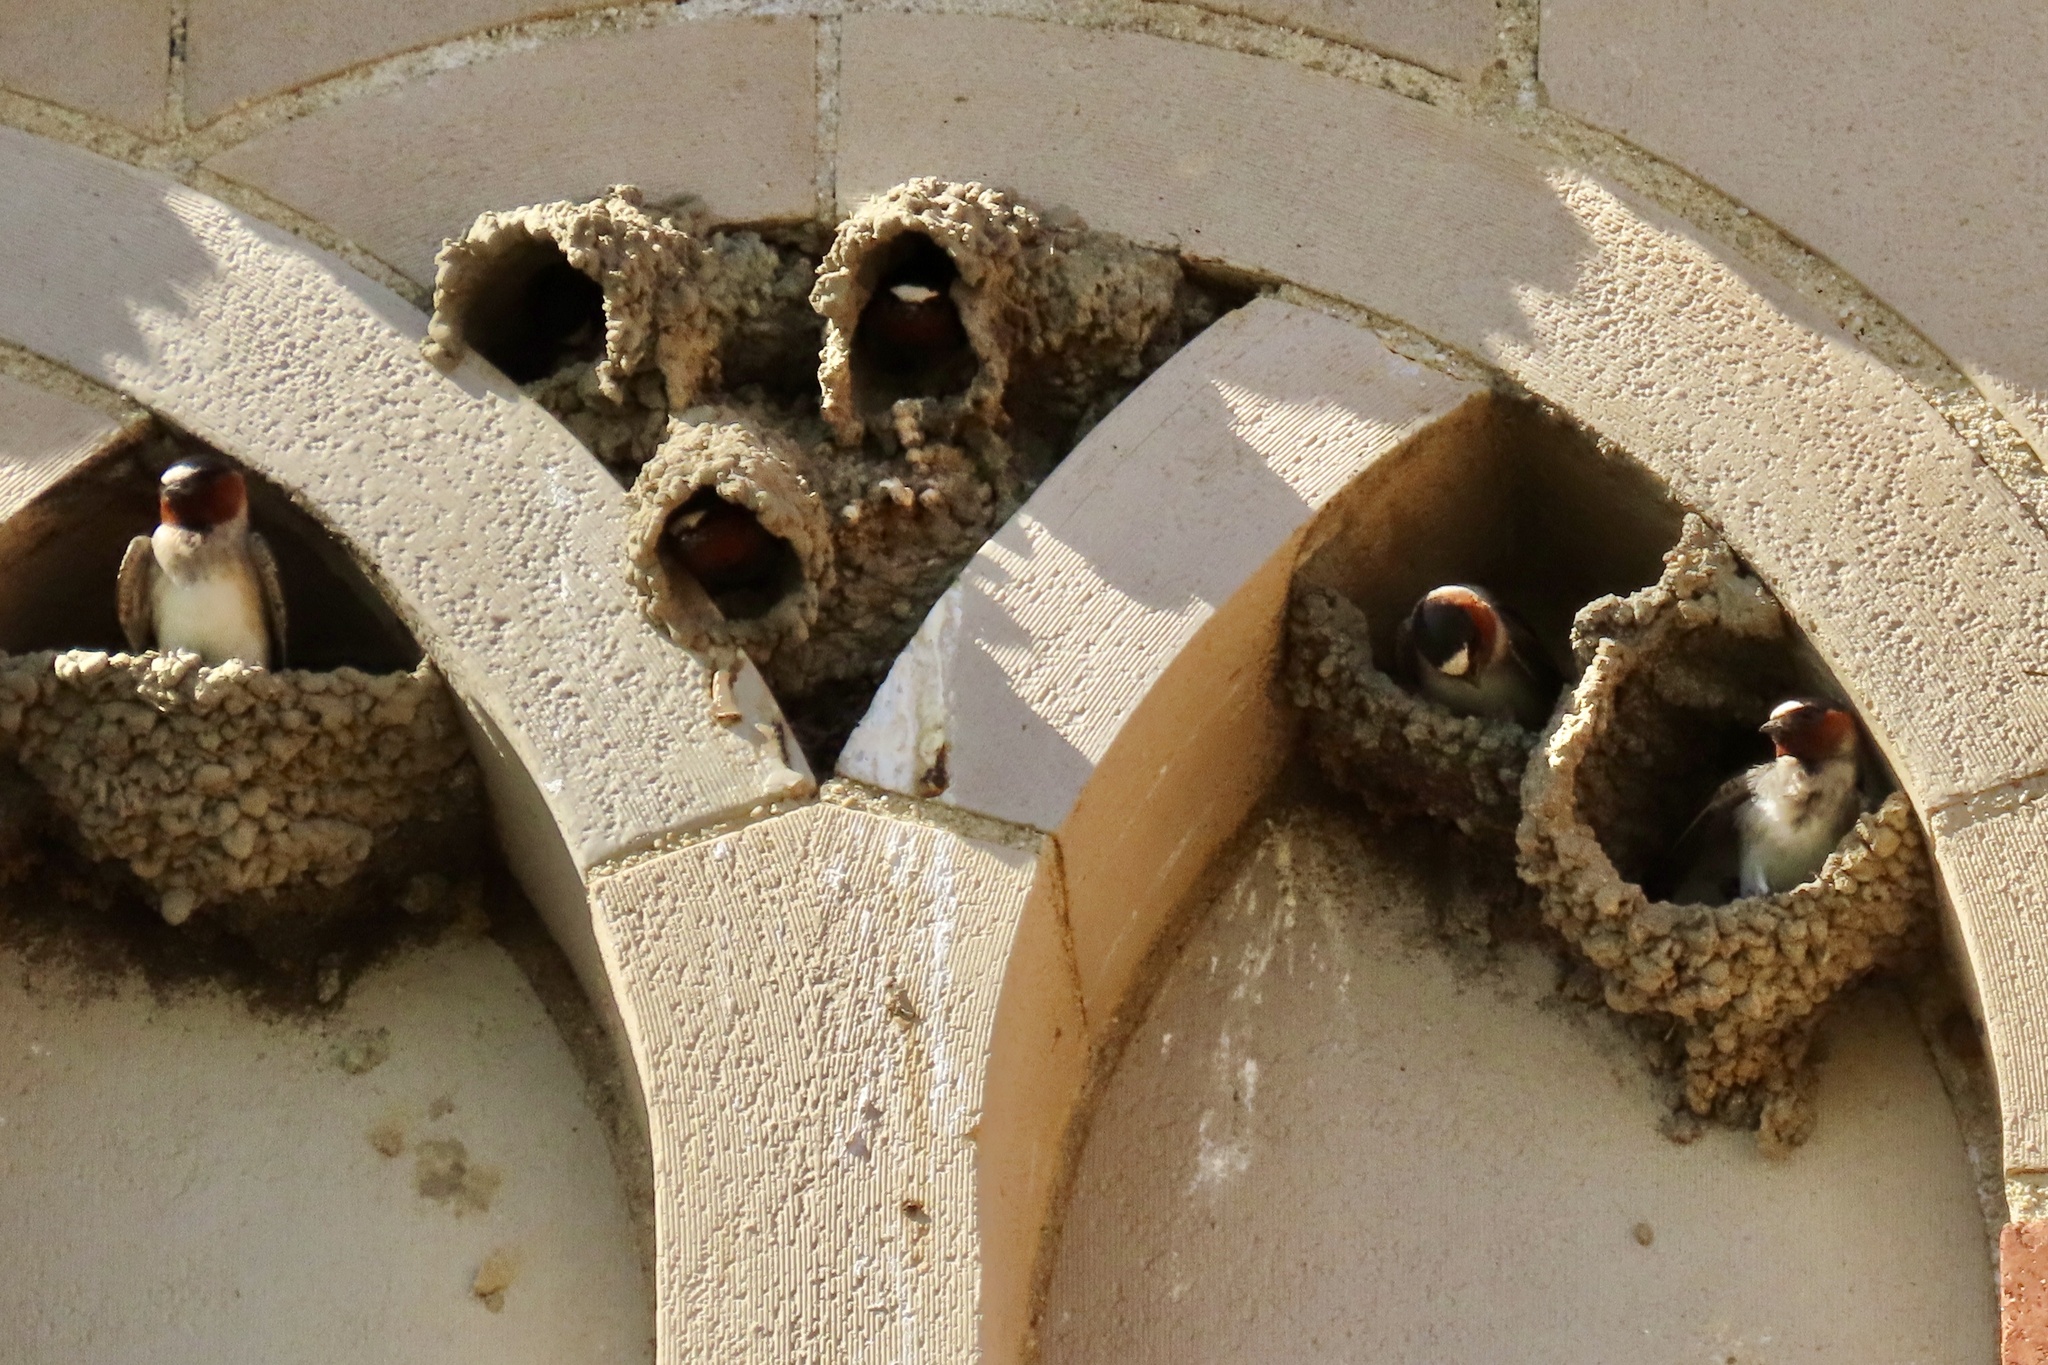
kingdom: Animalia
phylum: Chordata
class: Aves
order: Passeriformes
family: Hirundinidae
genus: Petrochelidon
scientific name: Petrochelidon pyrrhonota
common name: American cliff swallow
